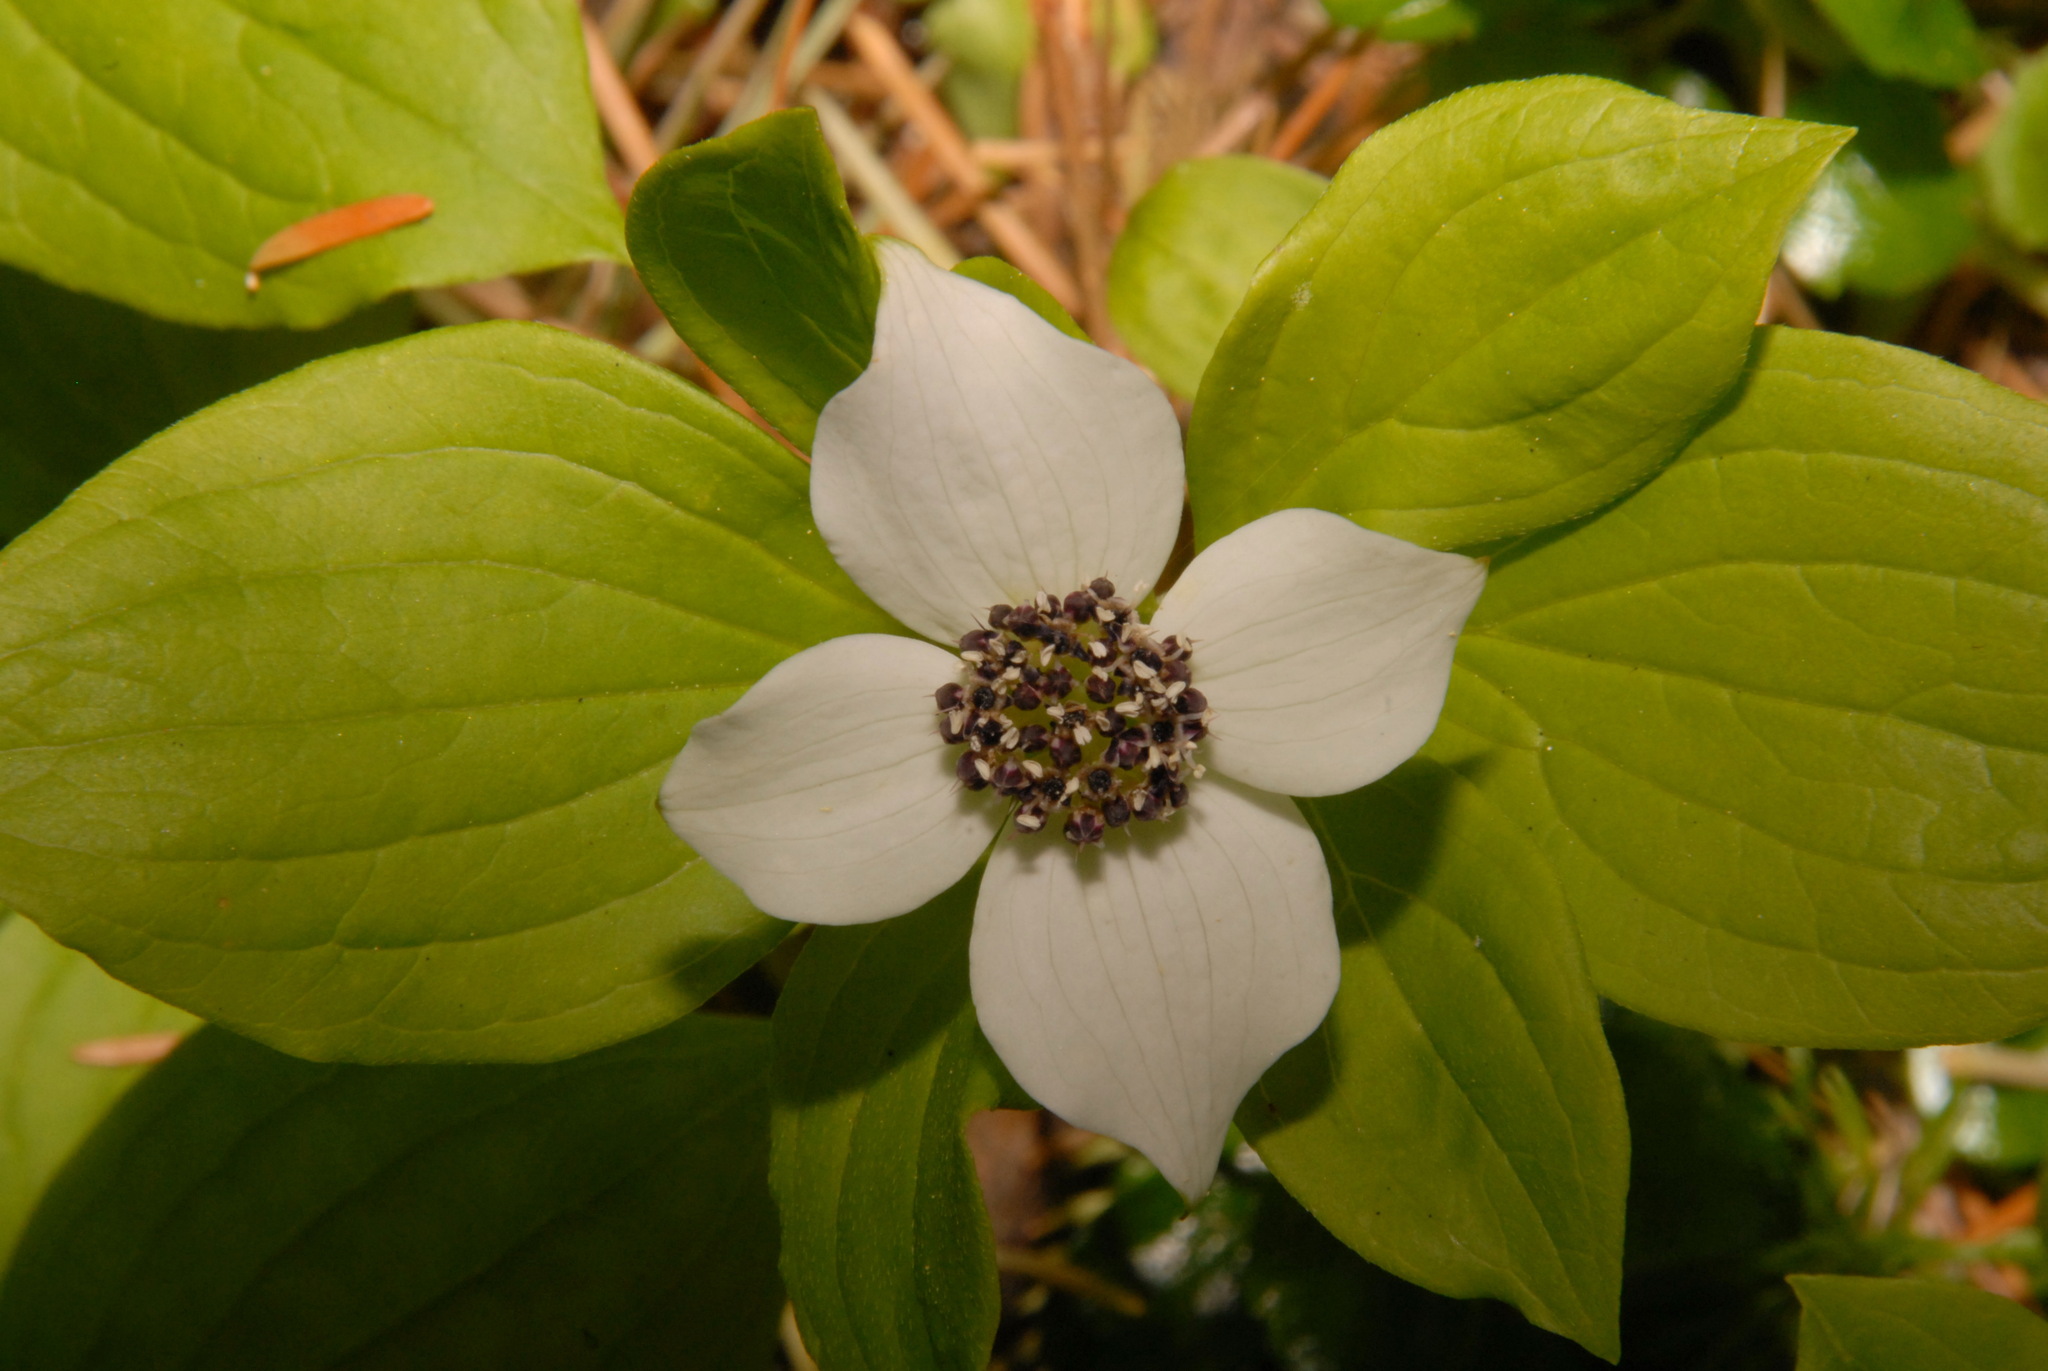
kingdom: Plantae
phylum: Tracheophyta
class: Magnoliopsida
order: Cornales
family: Cornaceae
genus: Cornus
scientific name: Cornus unalaschkensis
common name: Alaska bunchberry
